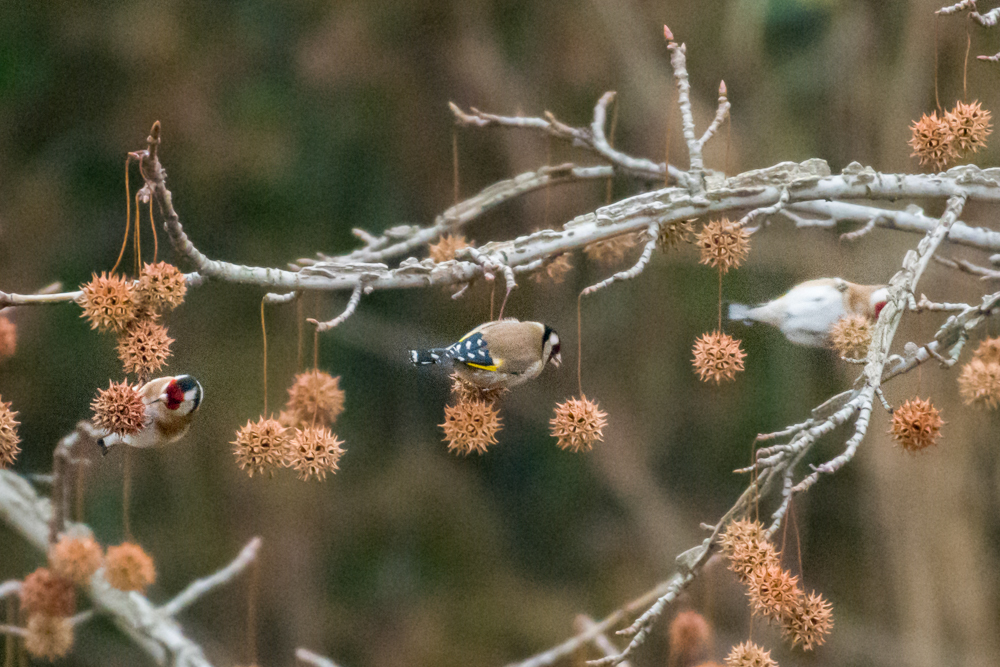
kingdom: Animalia
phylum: Chordata
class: Aves
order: Passeriformes
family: Fringillidae
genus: Carduelis
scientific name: Carduelis carduelis
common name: European goldfinch
